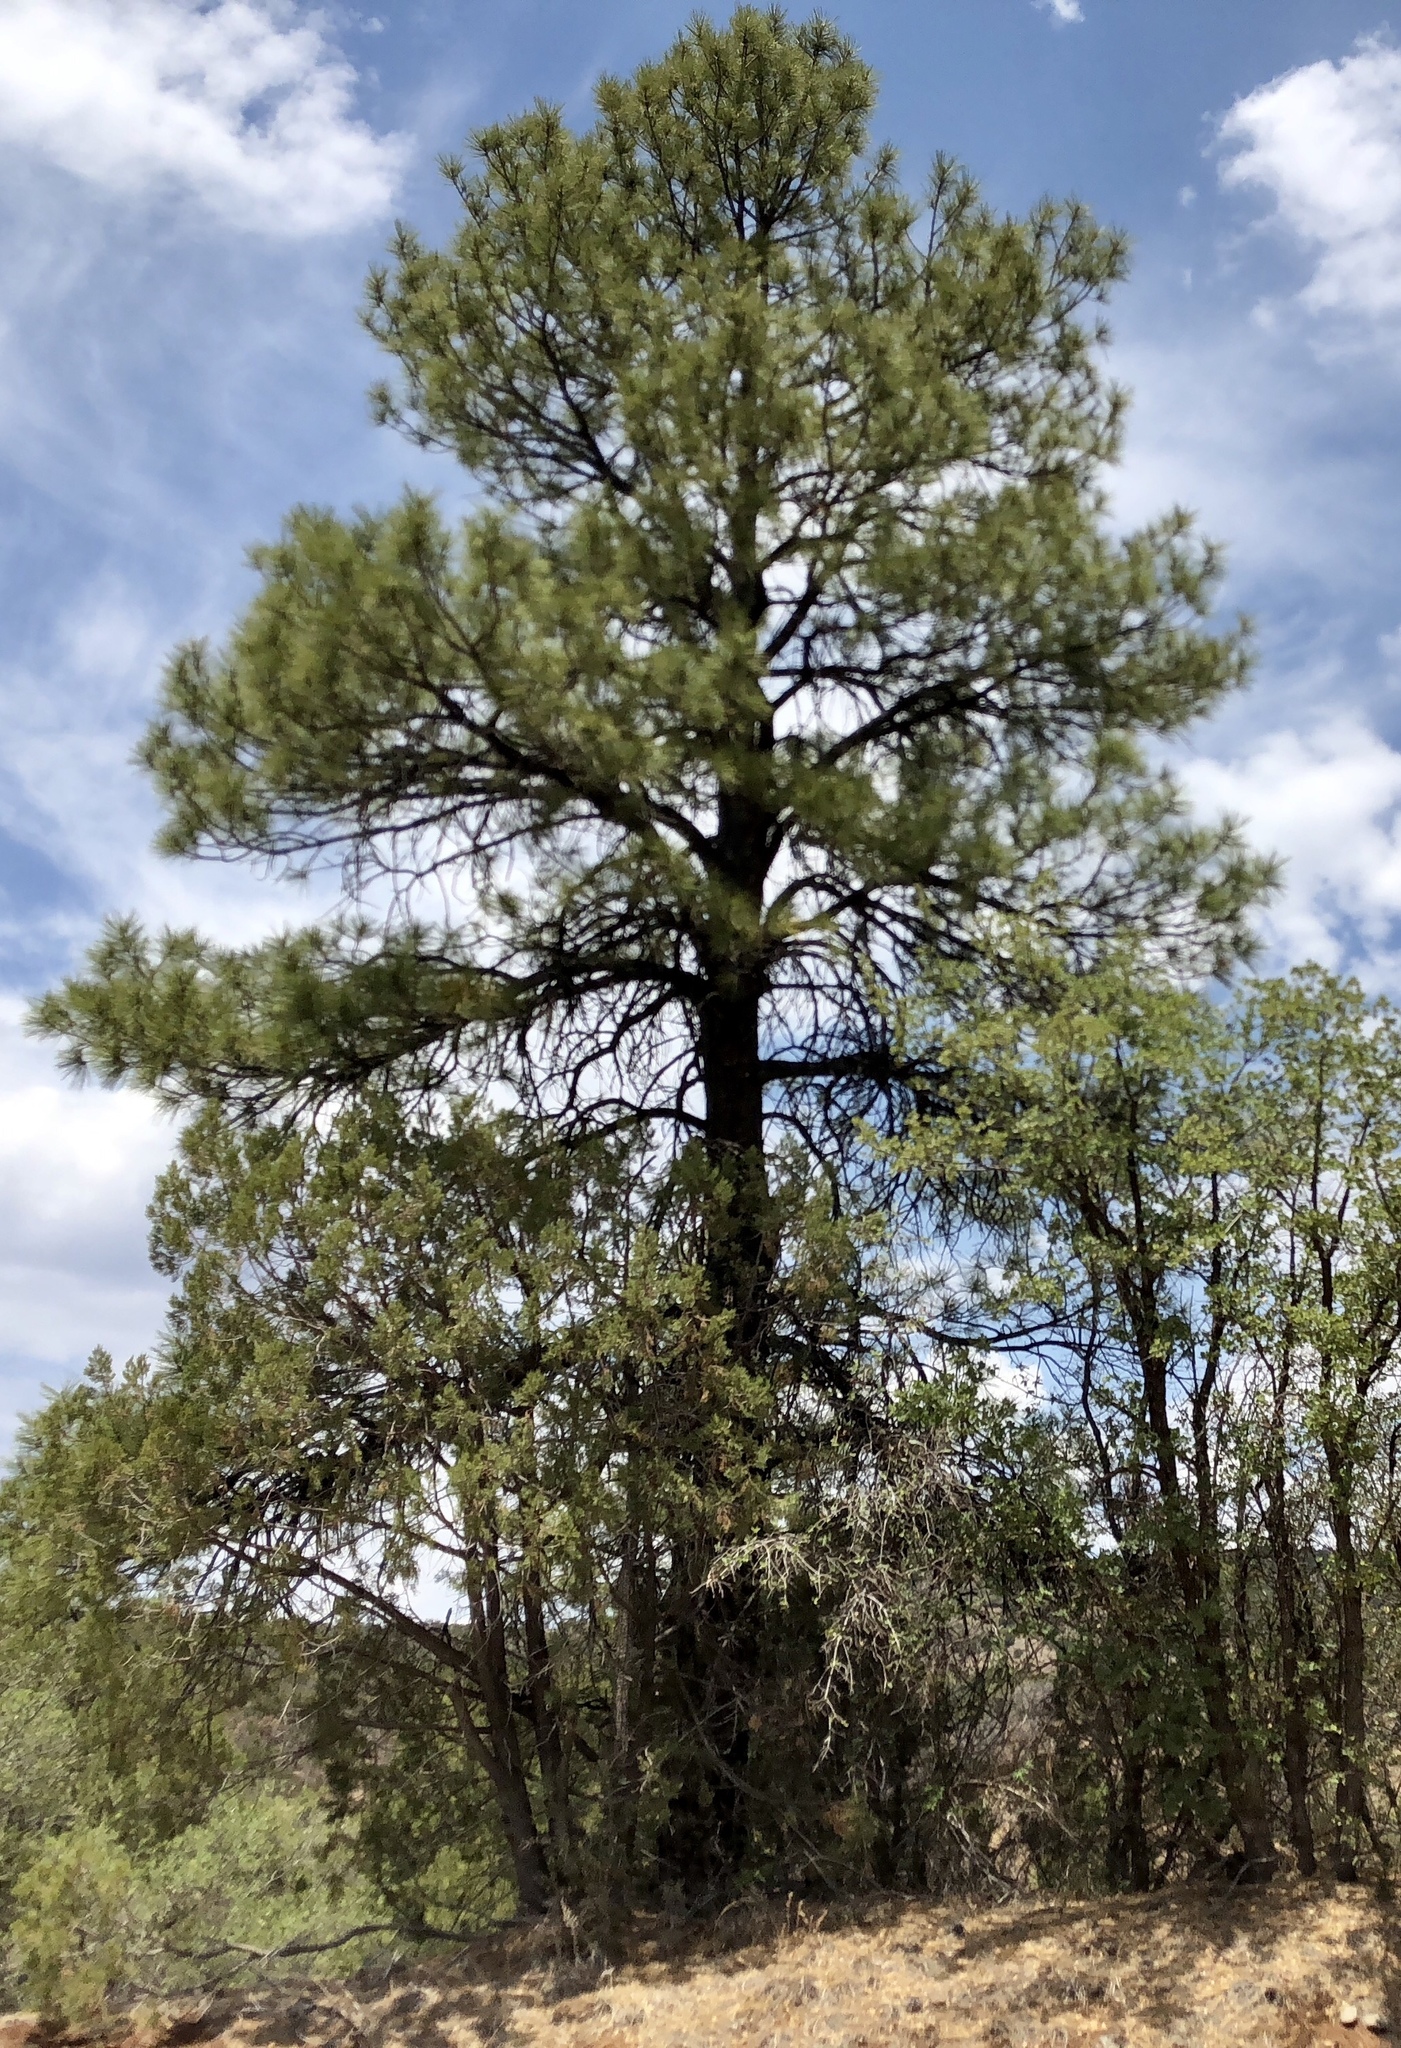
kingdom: Plantae
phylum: Tracheophyta
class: Pinopsida
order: Pinales
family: Pinaceae
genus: Pinus
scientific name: Pinus ponderosa
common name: Western yellow-pine
